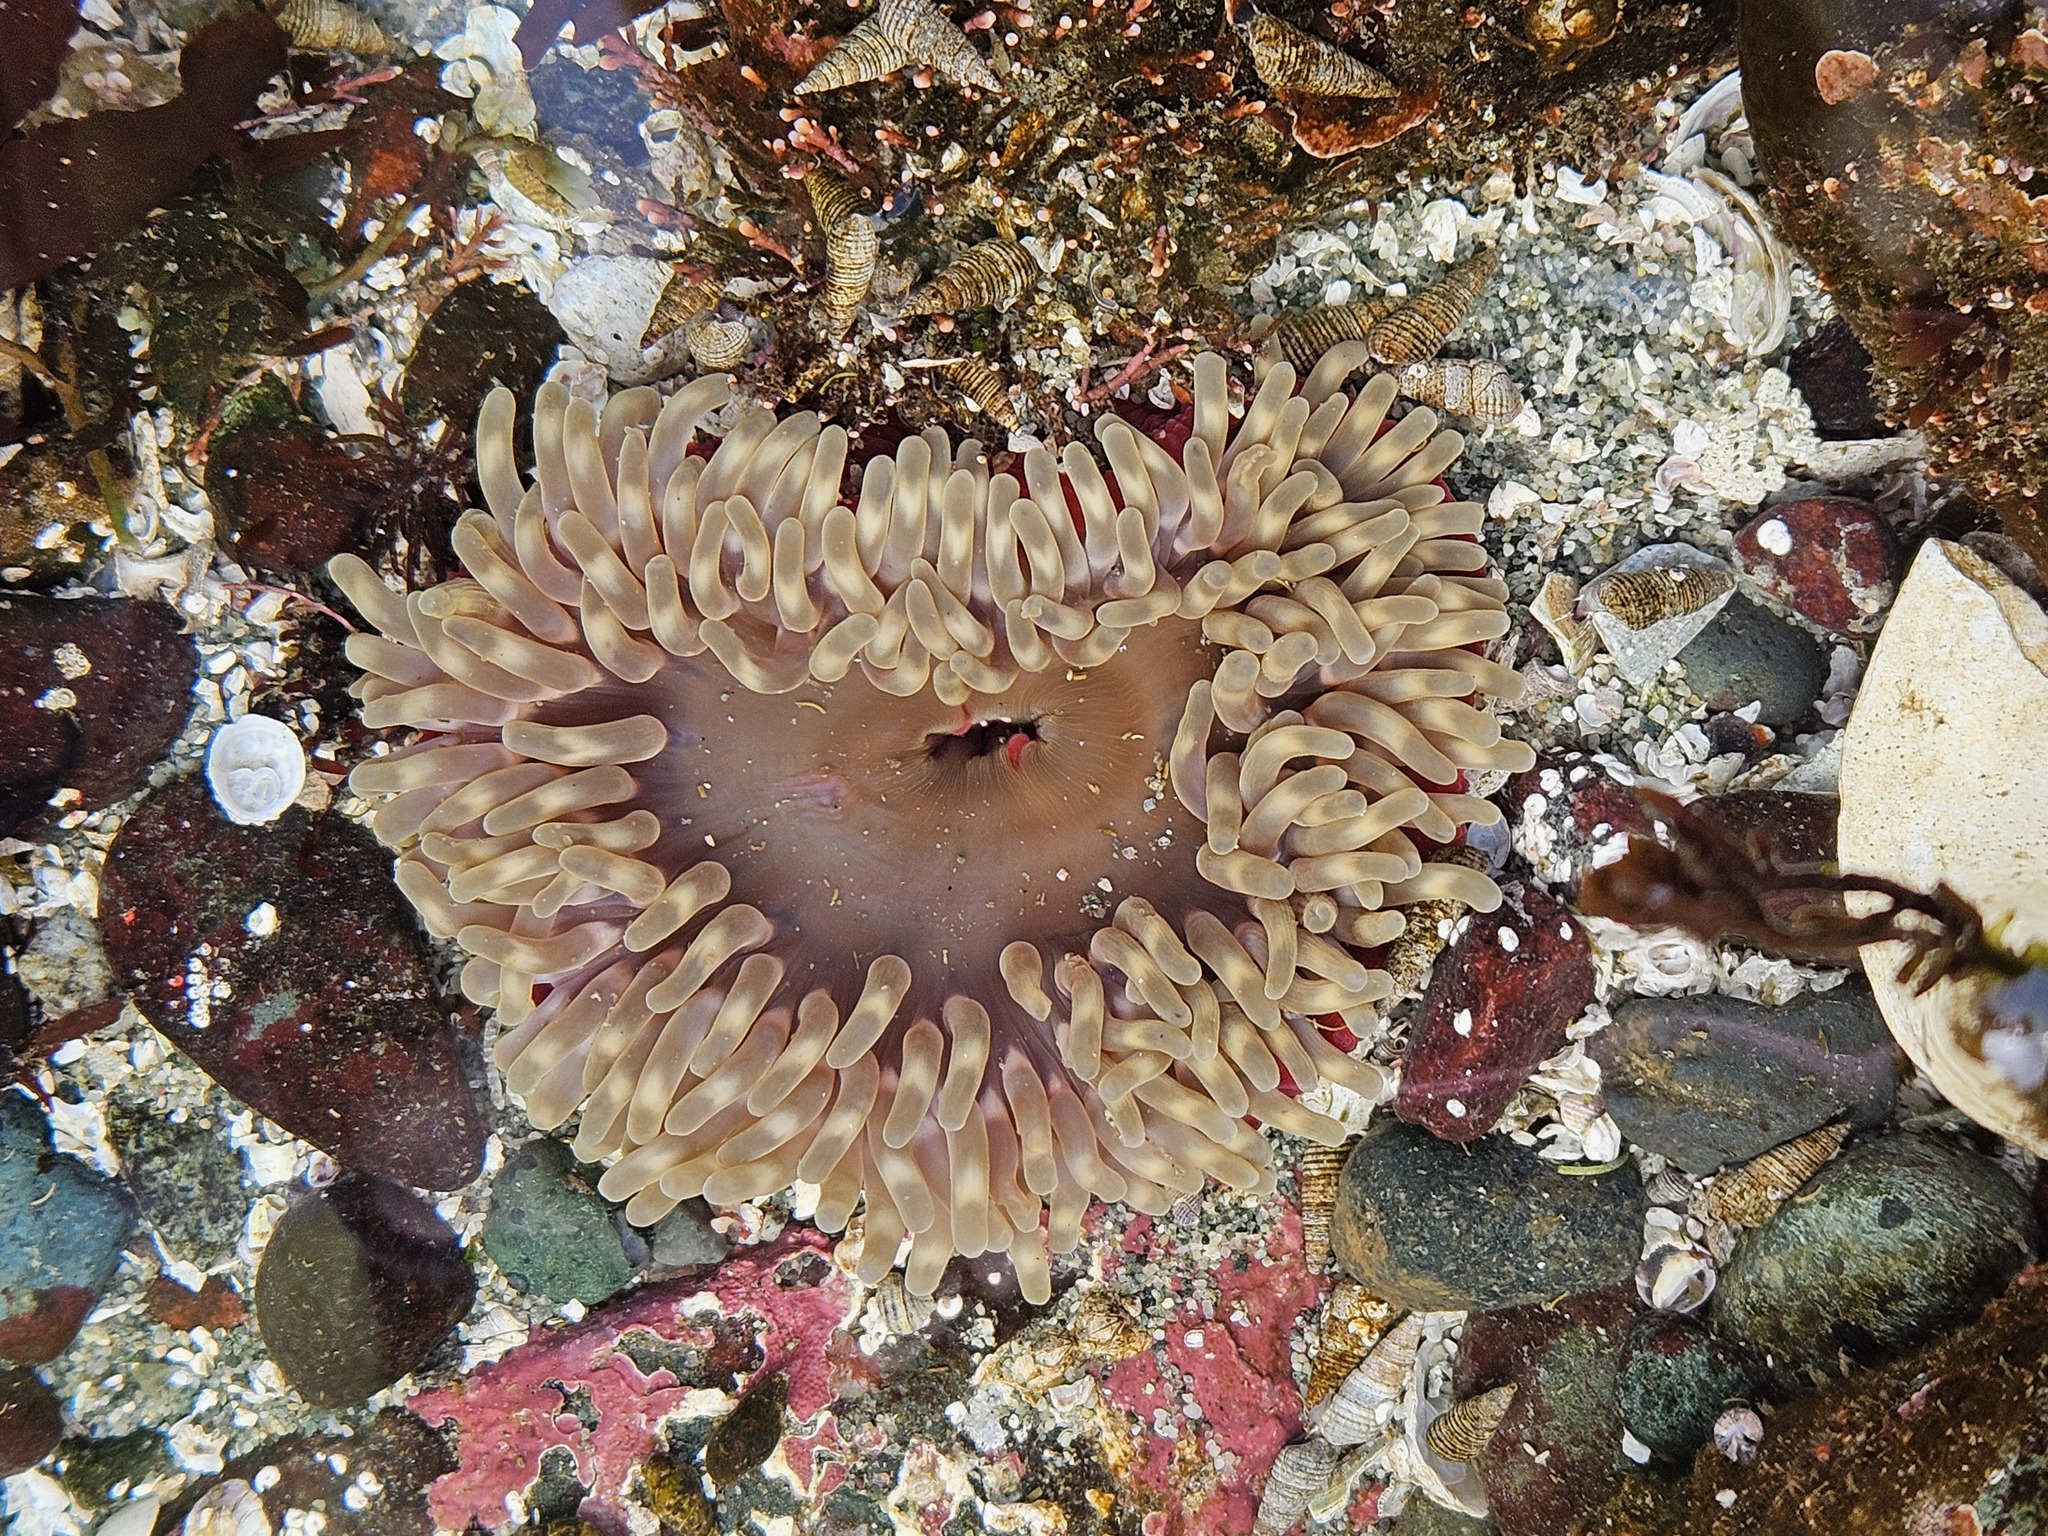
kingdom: Animalia
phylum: Cnidaria
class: Anthozoa
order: Actiniaria
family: Actiniidae
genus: Urticina
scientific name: Urticina clandestina
